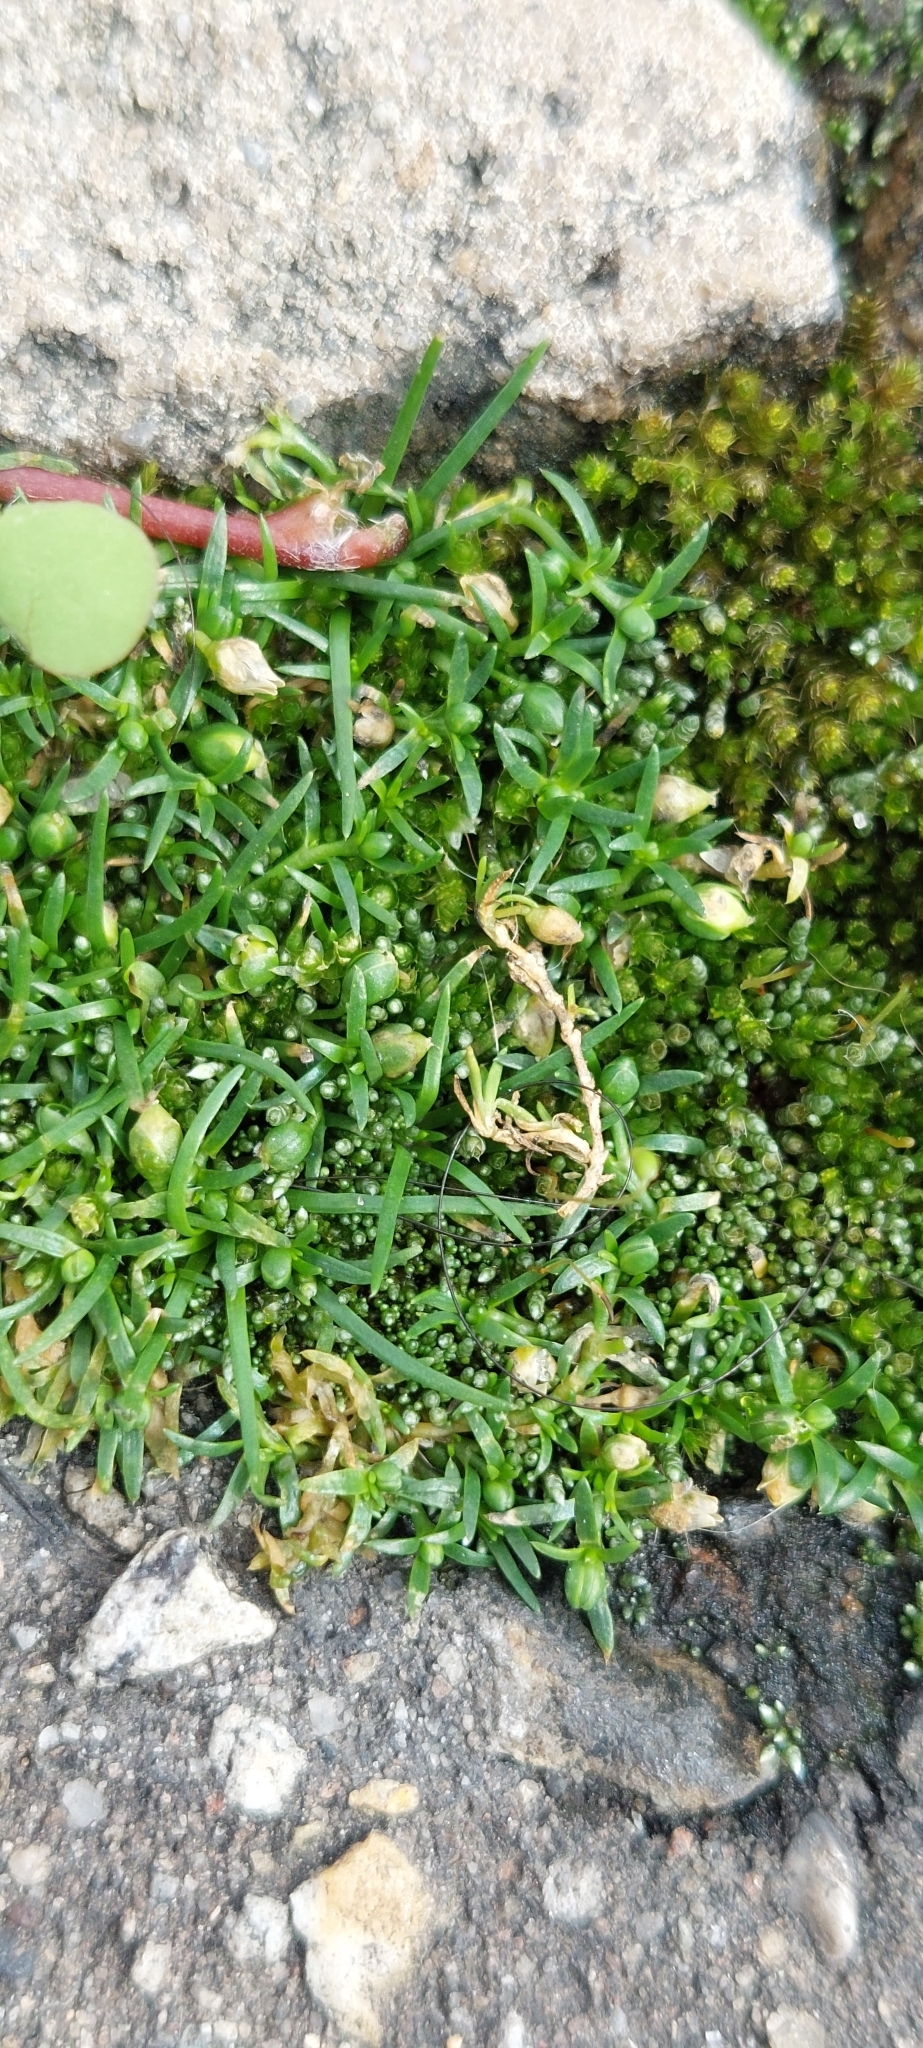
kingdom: Plantae
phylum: Tracheophyta
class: Magnoliopsida
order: Caryophyllales
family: Caryophyllaceae
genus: Sagina
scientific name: Sagina procumbens
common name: Procumbent pearlwort
